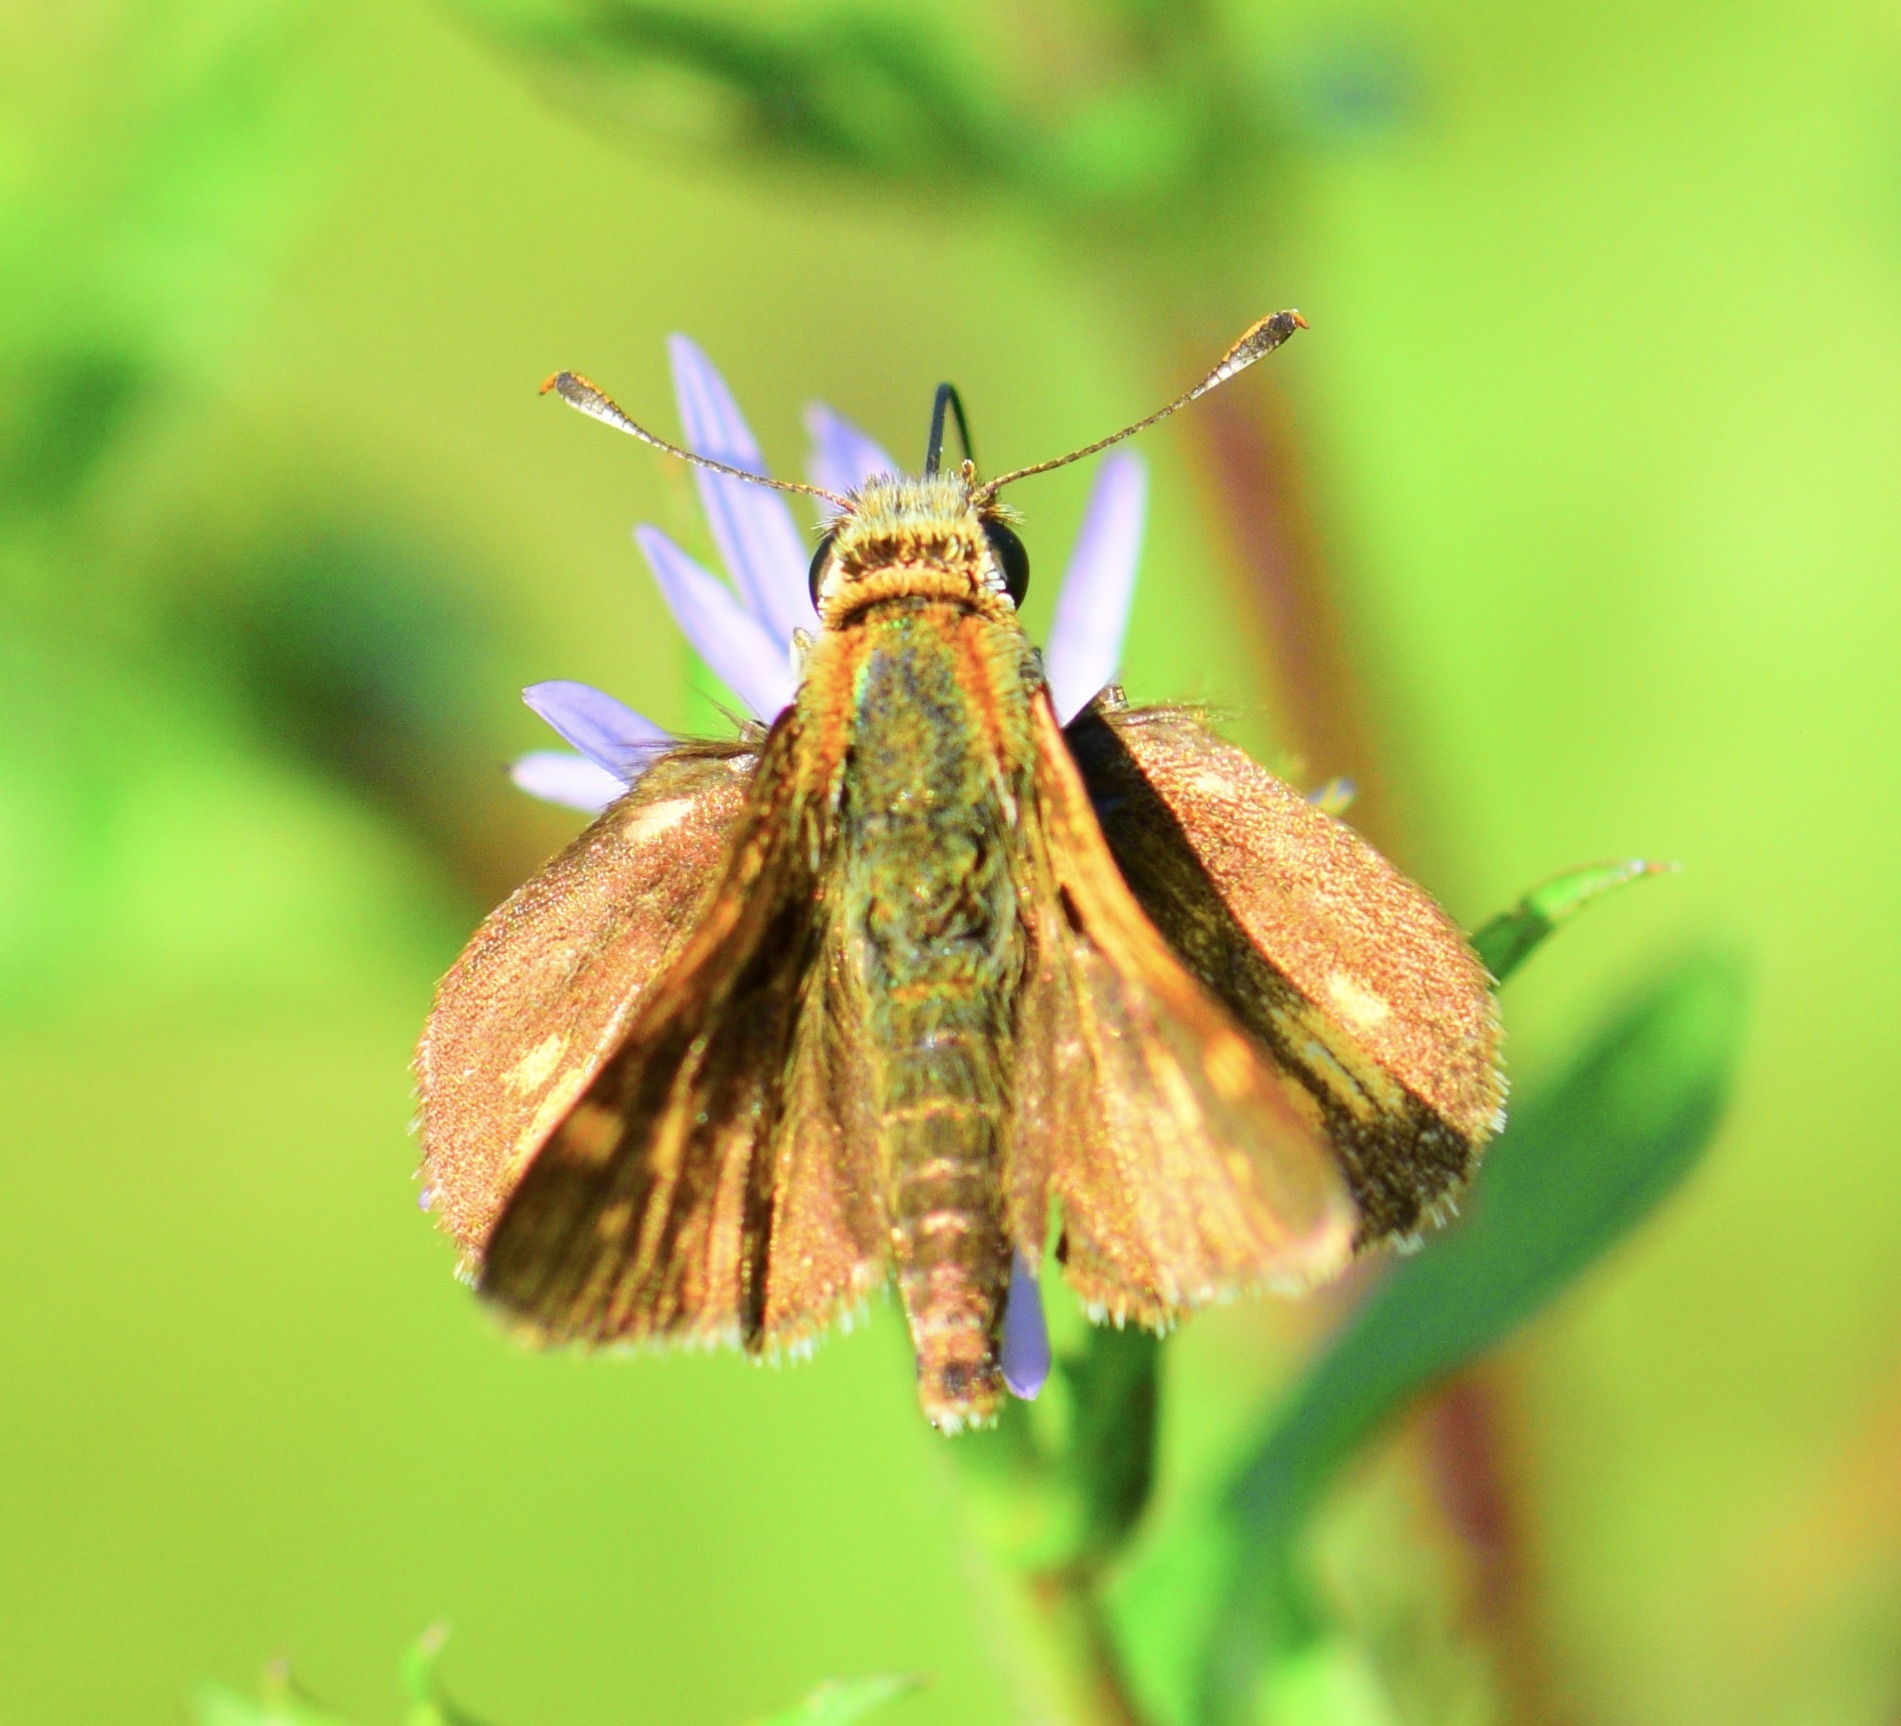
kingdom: Animalia
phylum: Arthropoda
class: Insecta
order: Lepidoptera
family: Hesperiidae
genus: Polites
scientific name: Polites coras
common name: Peck's skipper
